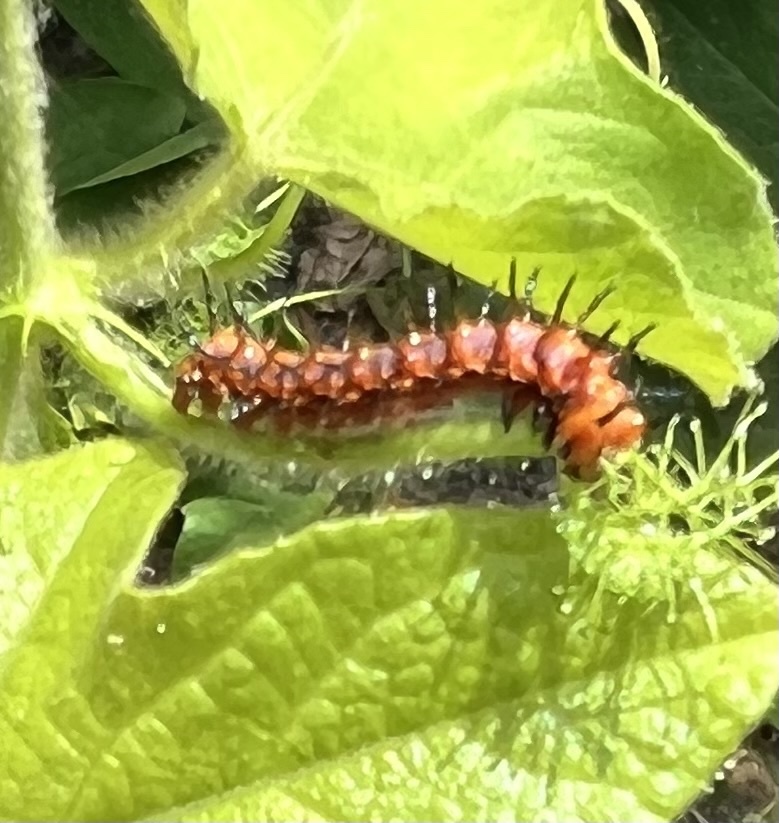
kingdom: Animalia
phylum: Arthropoda
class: Insecta
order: Lepidoptera
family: Nymphalidae
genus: Dione
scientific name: Dione vanillae
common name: Gulf fritillary
